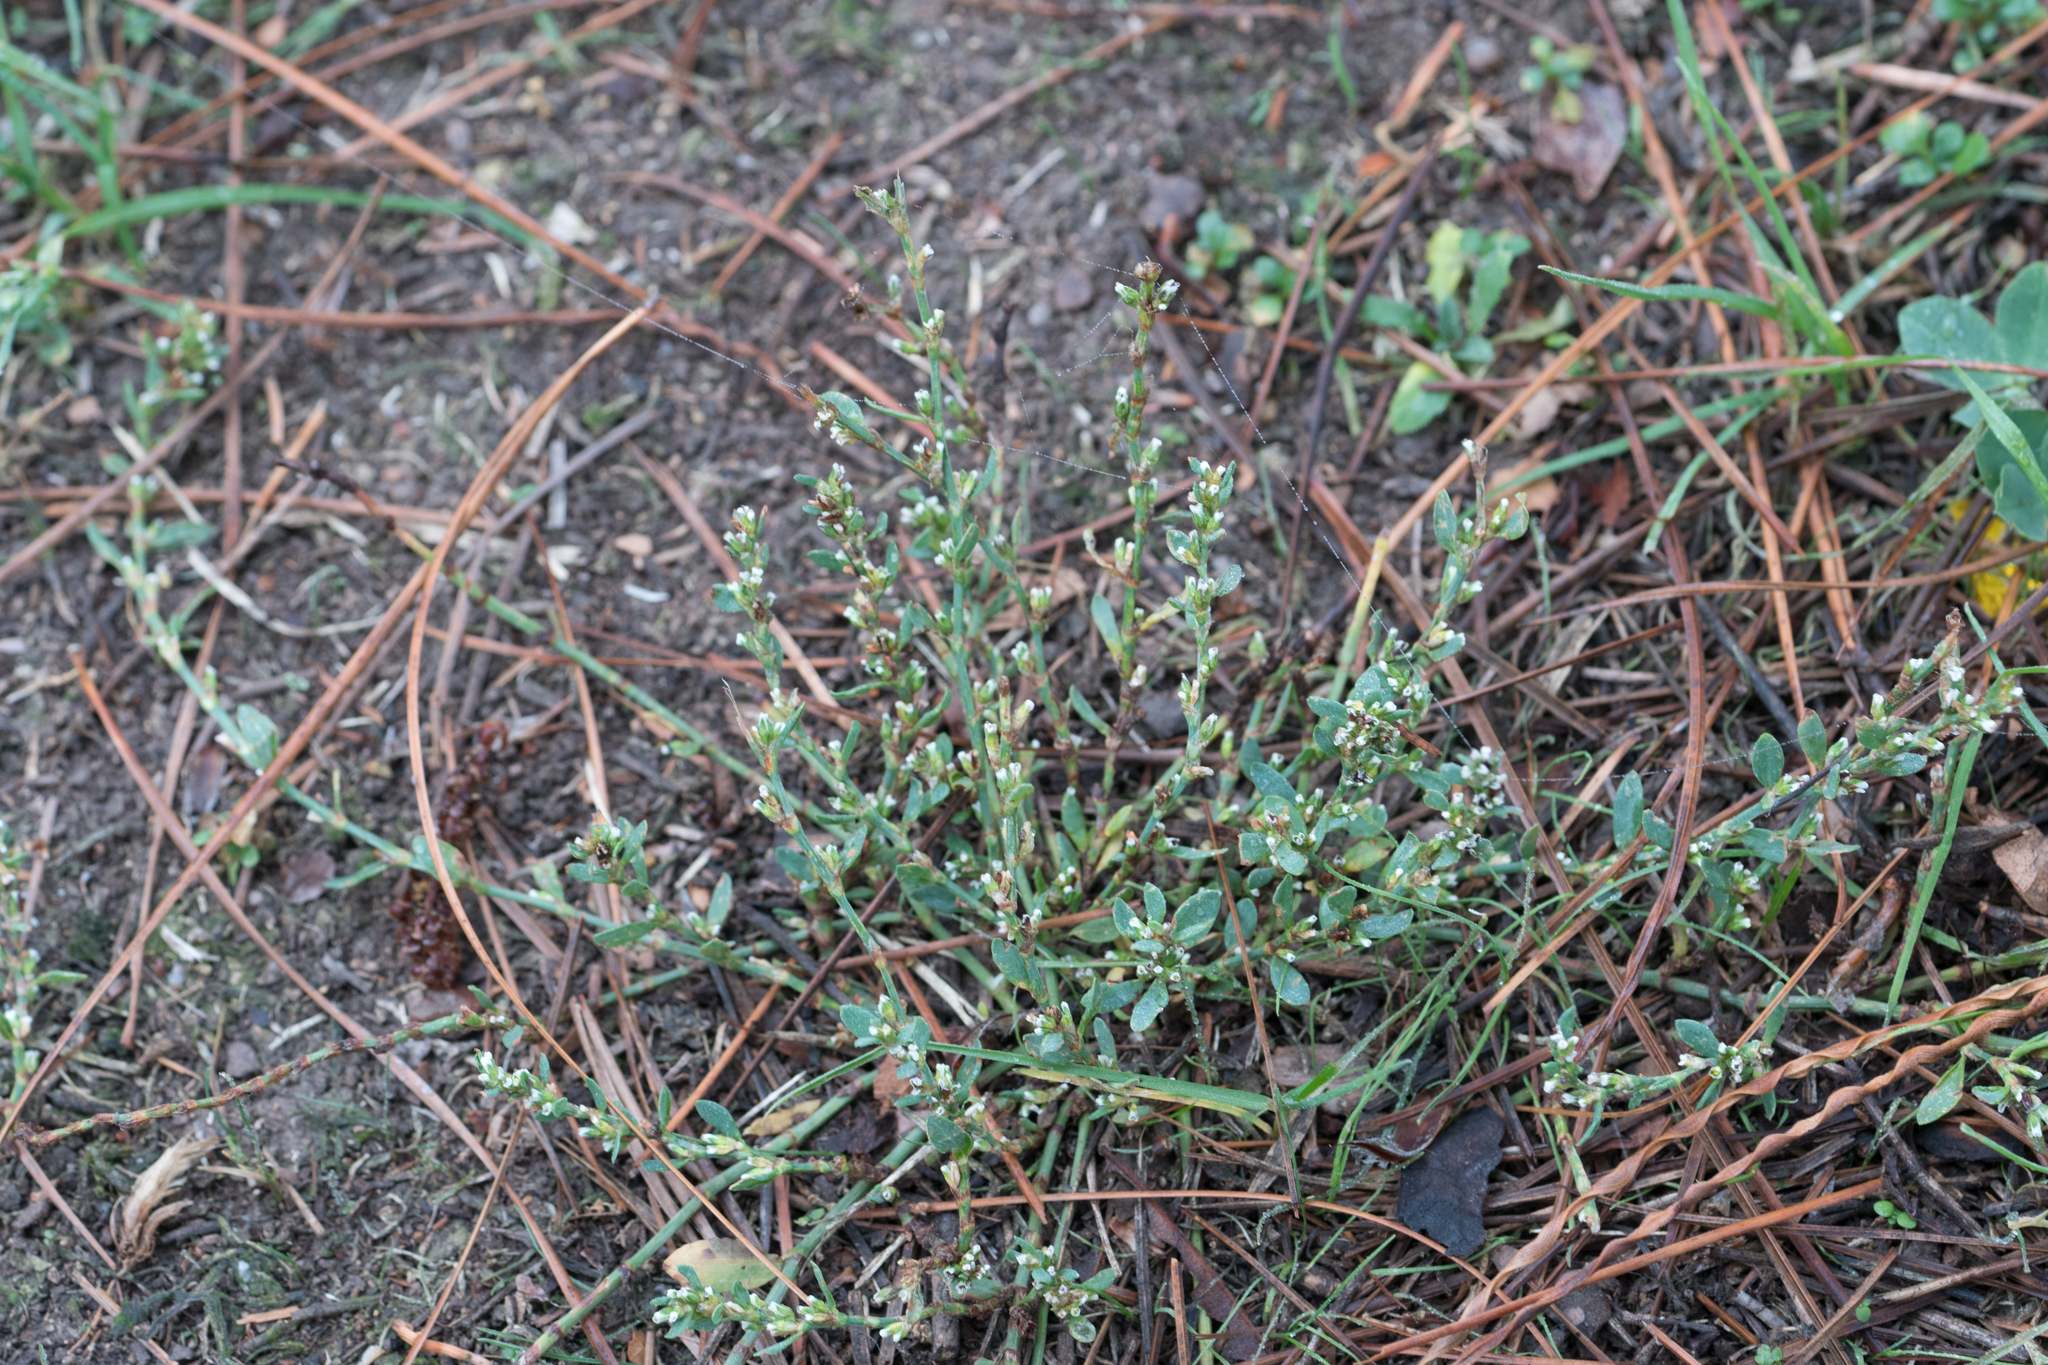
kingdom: Plantae
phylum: Tracheophyta
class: Magnoliopsida
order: Caryophyllales
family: Polygonaceae
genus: Polygonum
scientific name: Polygonum aviculare
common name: Prostrate knotweed
